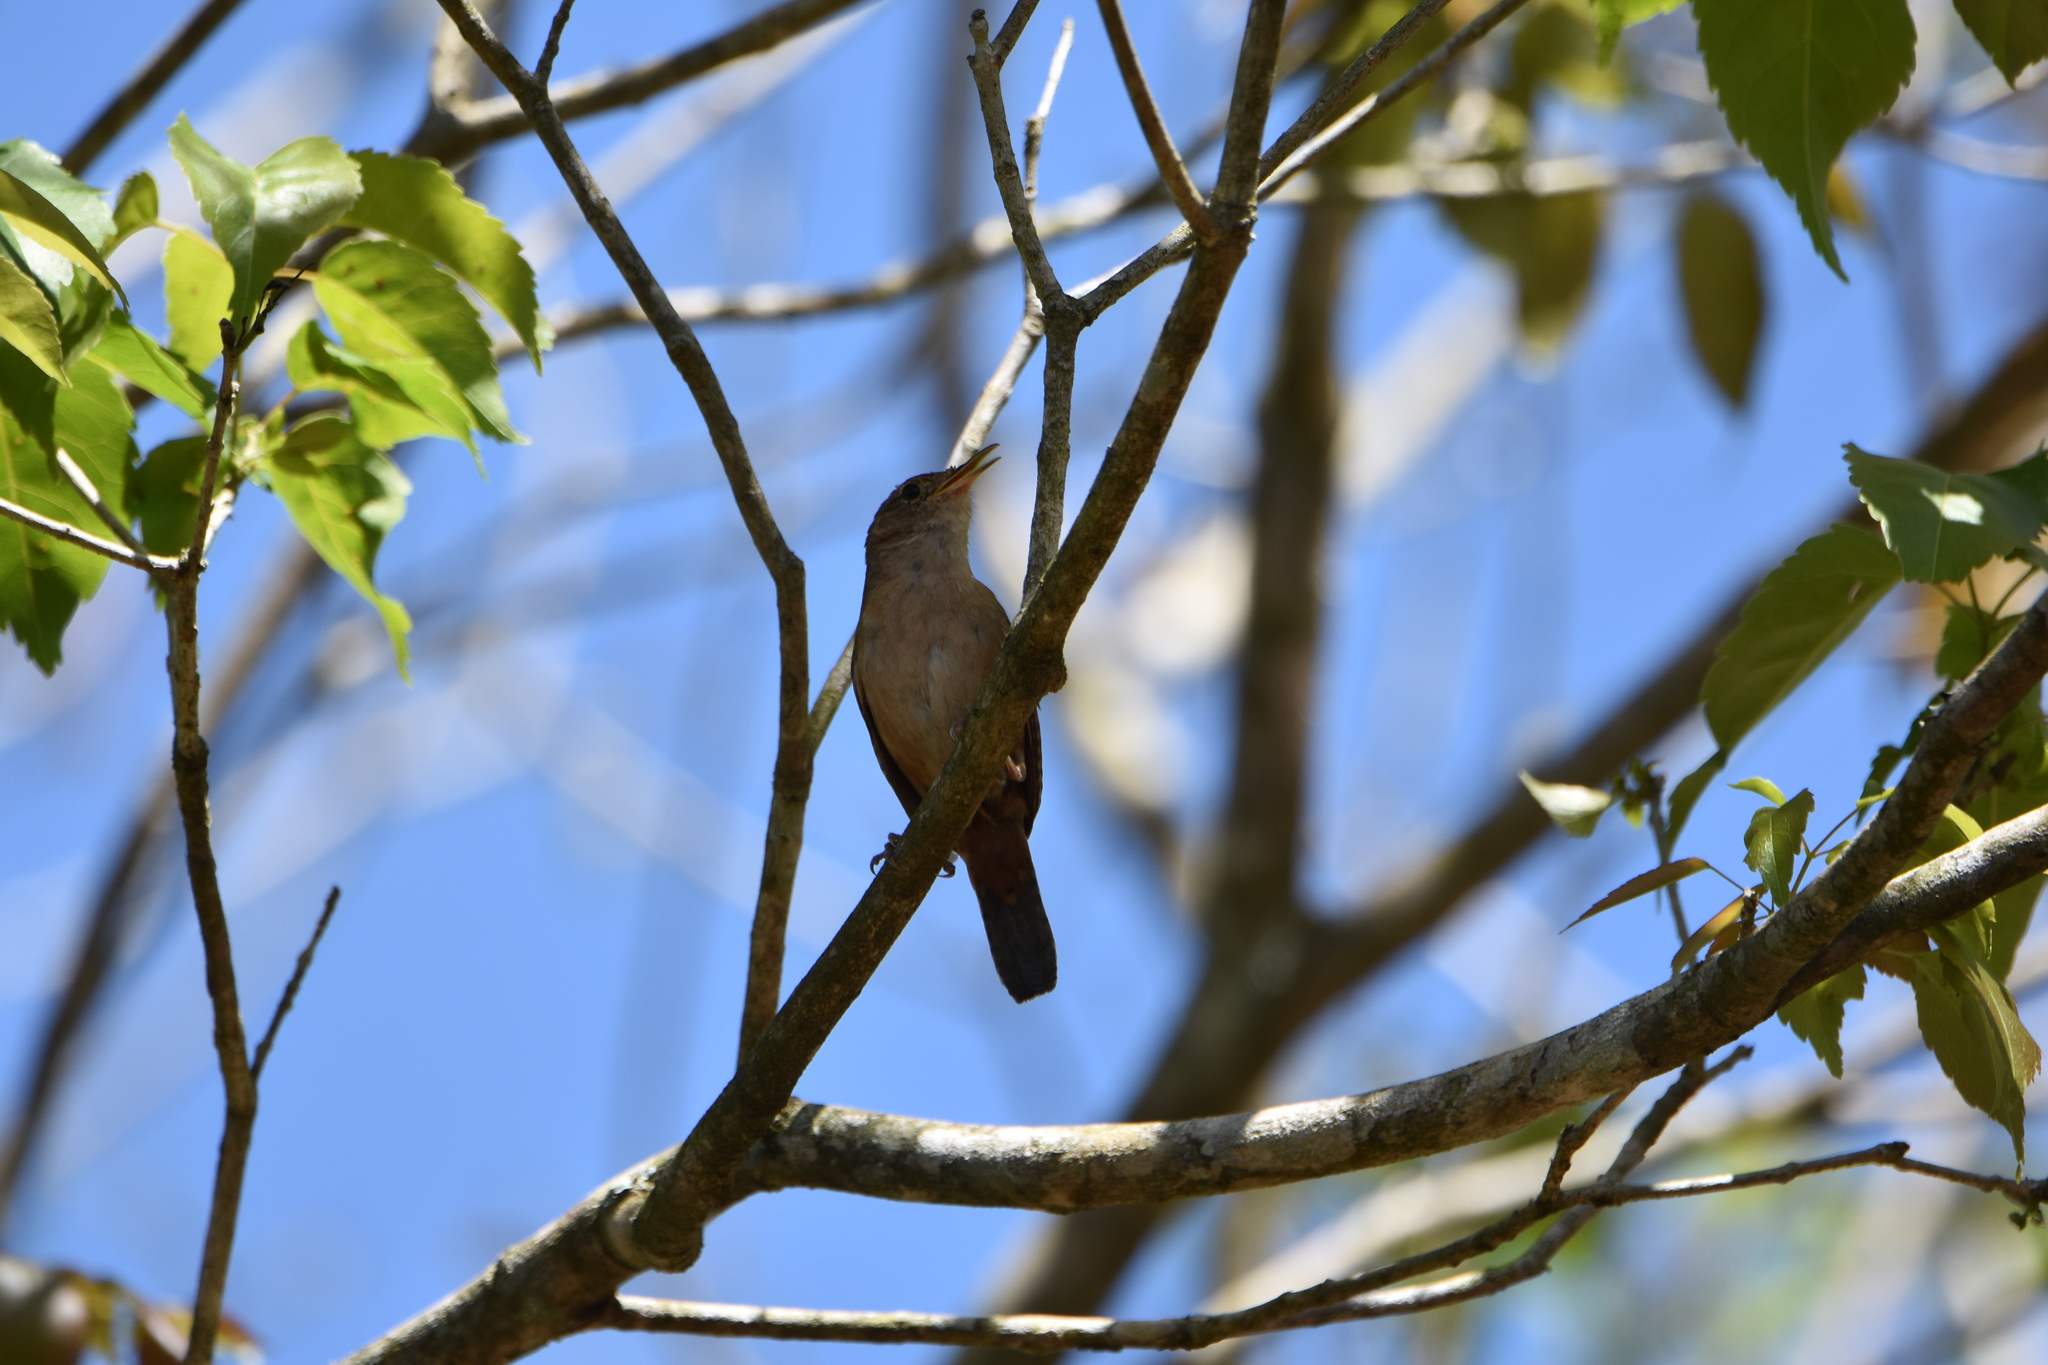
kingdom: Animalia
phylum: Chordata
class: Aves
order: Passeriformes
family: Troglodytidae
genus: Troglodytes
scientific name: Troglodytes aedon
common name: House wren
